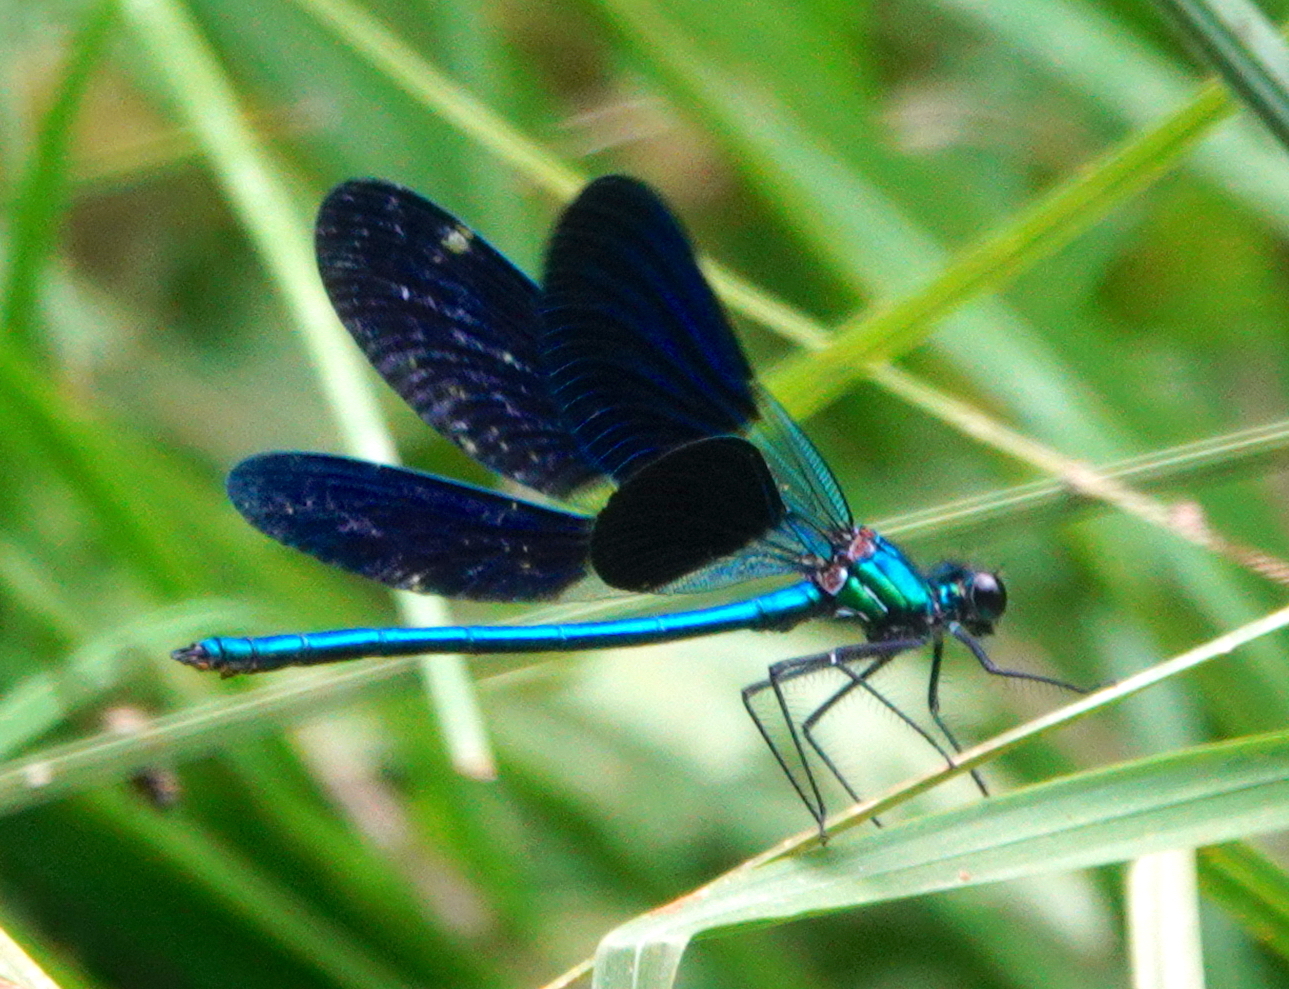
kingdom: Animalia
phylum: Arthropoda
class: Insecta
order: Odonata
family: Calopterygidae
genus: Calopteryx
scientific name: Calopteryx xanthostoma
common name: Western demoiselle
